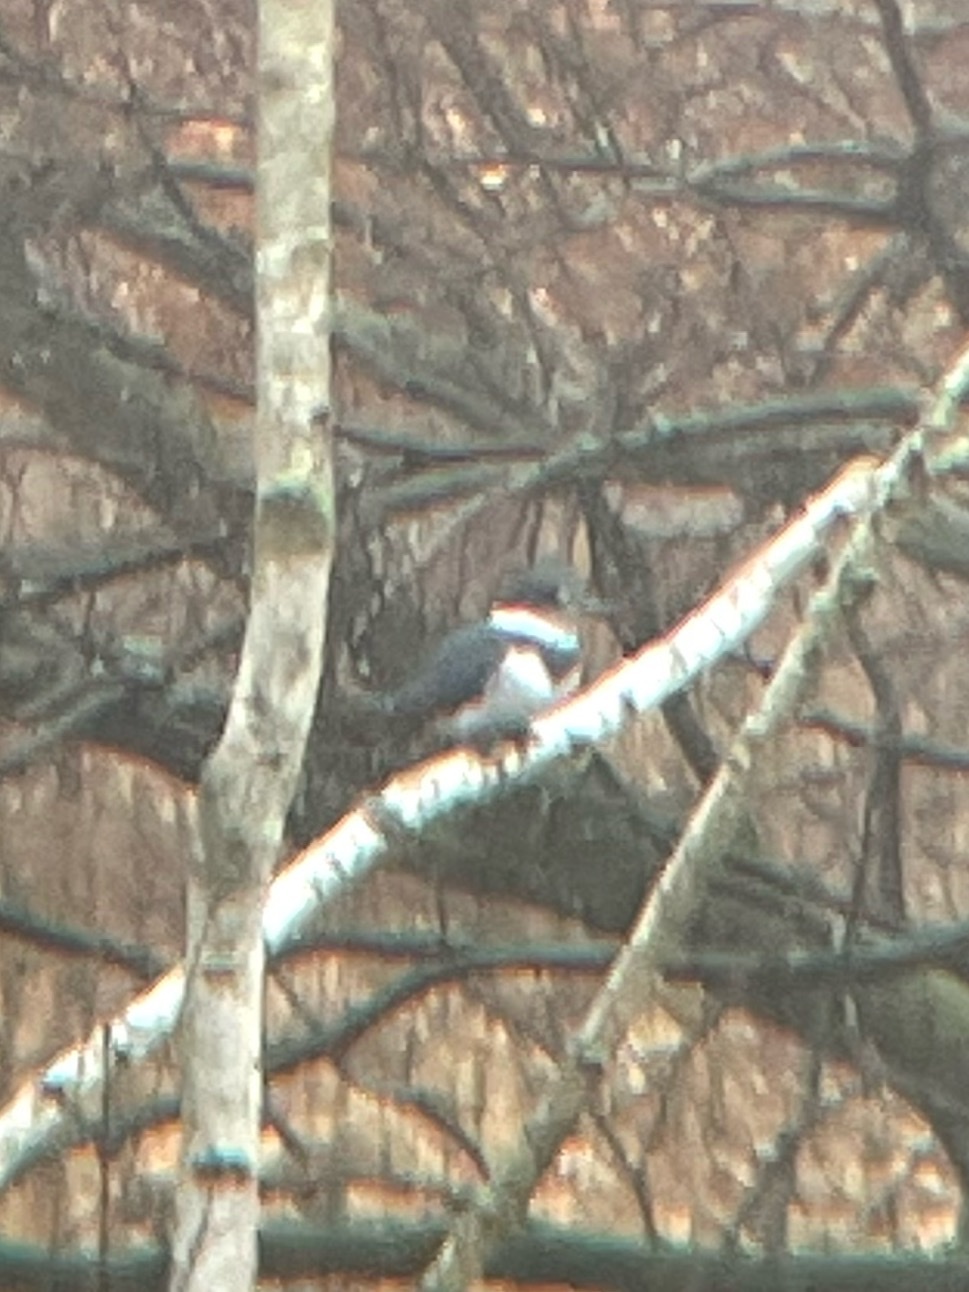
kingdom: Animalia
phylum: Chordata
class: Aves
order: Coraciiformes
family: Alcedinidae
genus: Megaceryle
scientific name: Megaceryle alcyon
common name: Belted kingfisher
